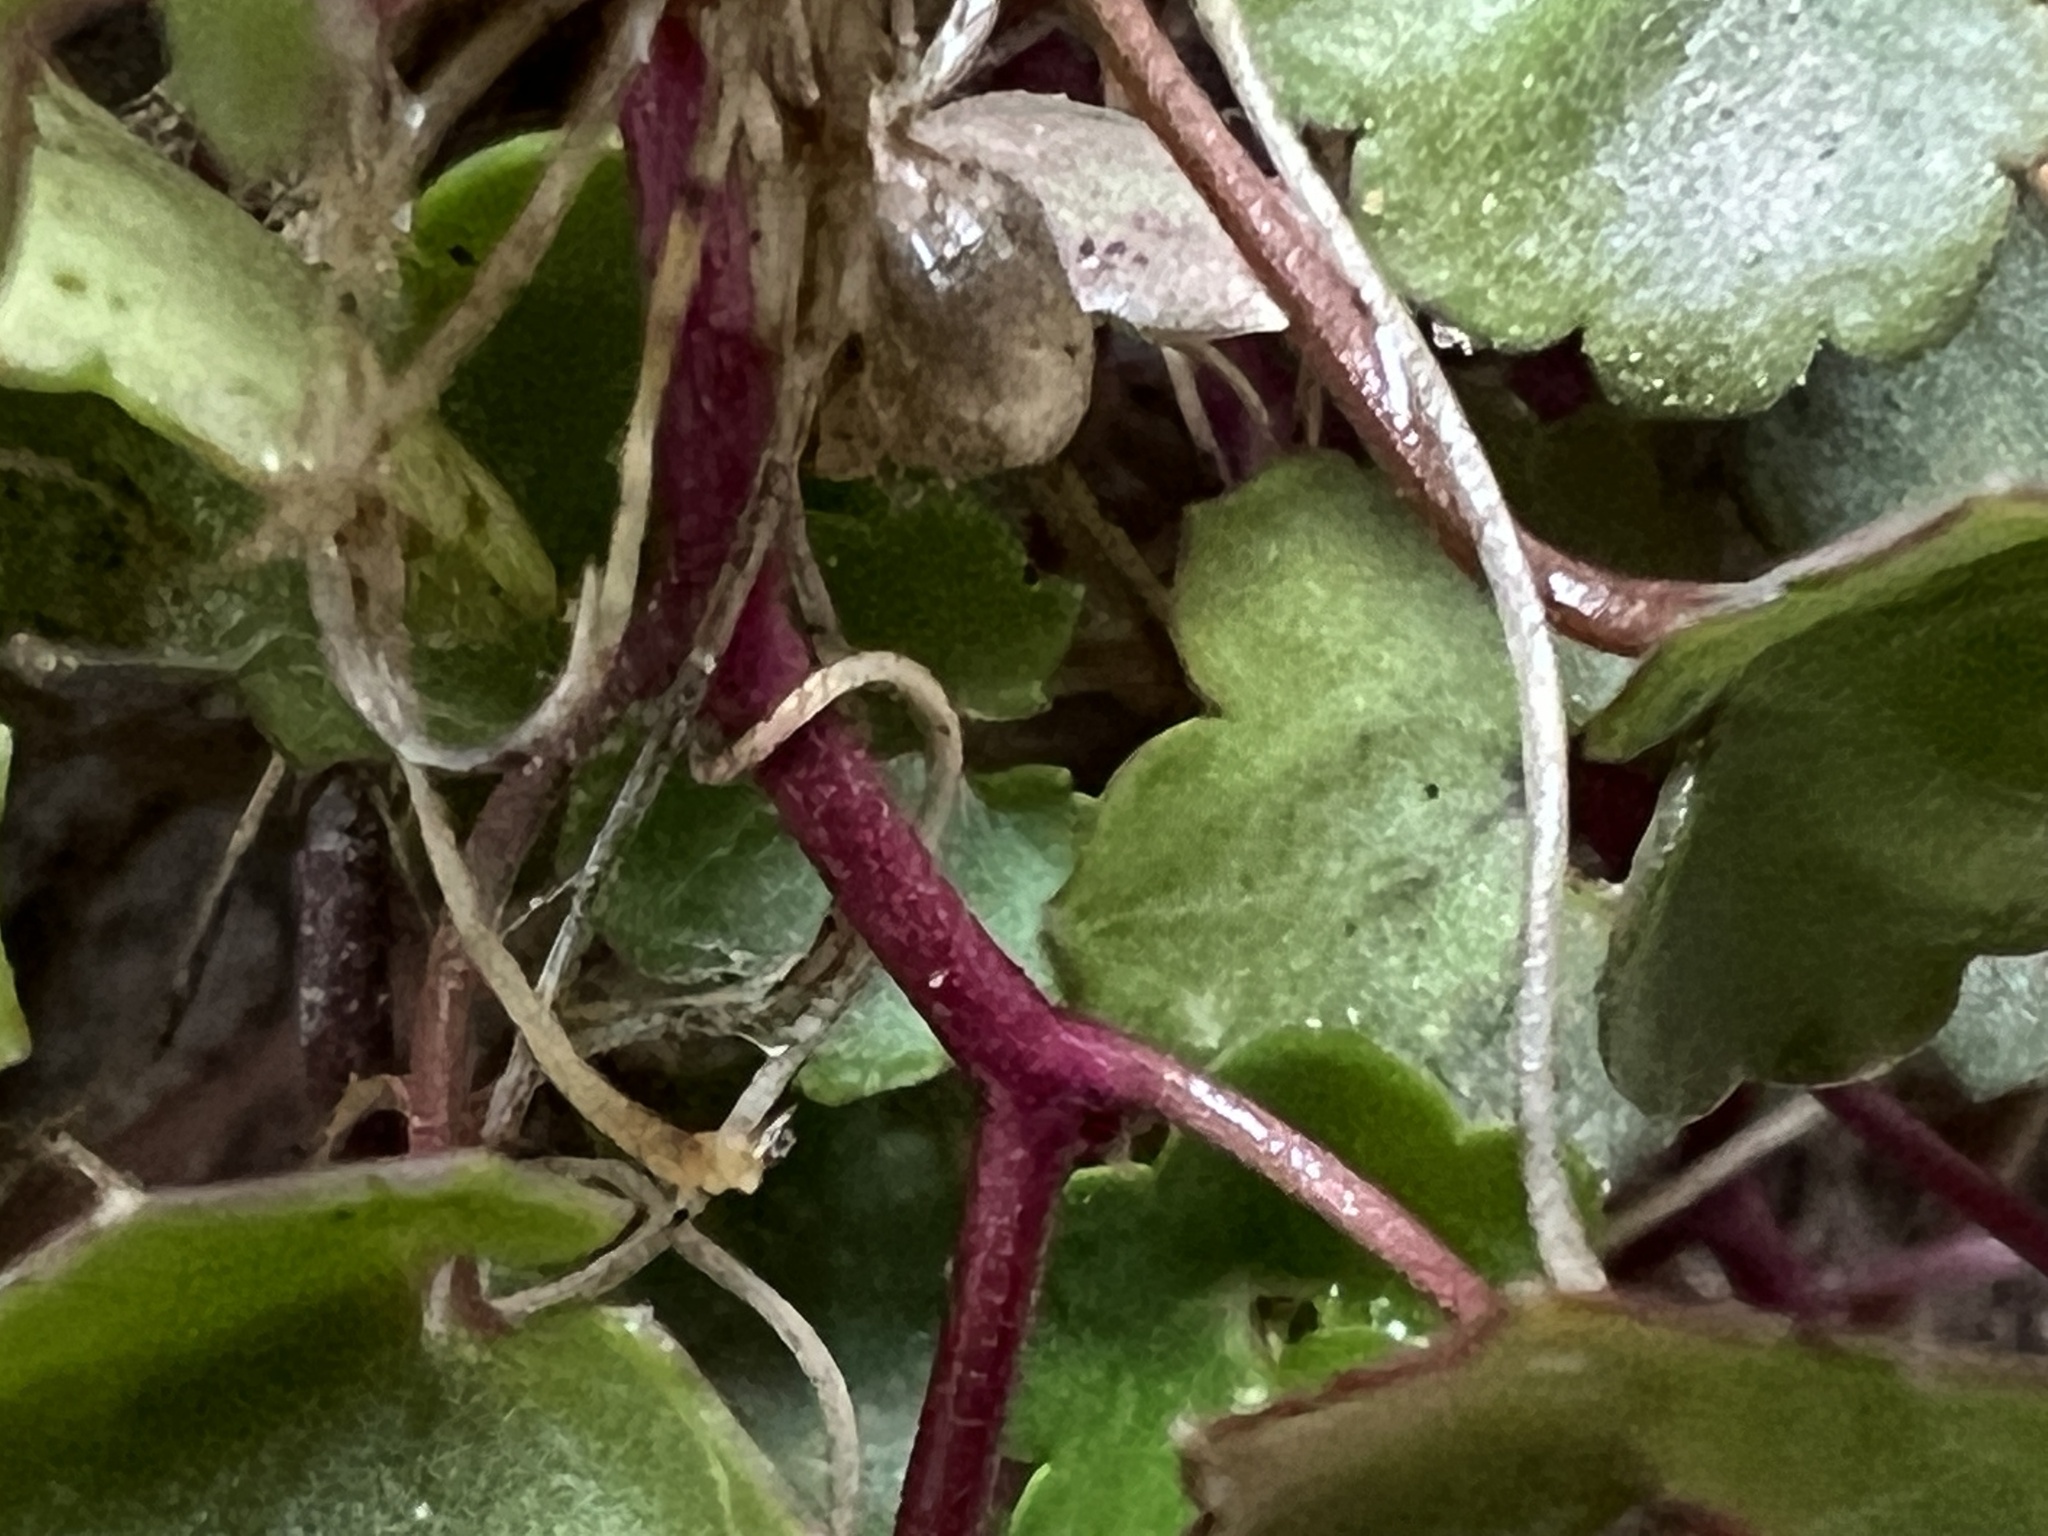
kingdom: Plantae
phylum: Tracheophyta
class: Magnoliopsida
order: Lamiales
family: Plantaginaceae
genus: Cymbalaria
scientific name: Cymbalaria muralis
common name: Ivy-leaved toadflax
